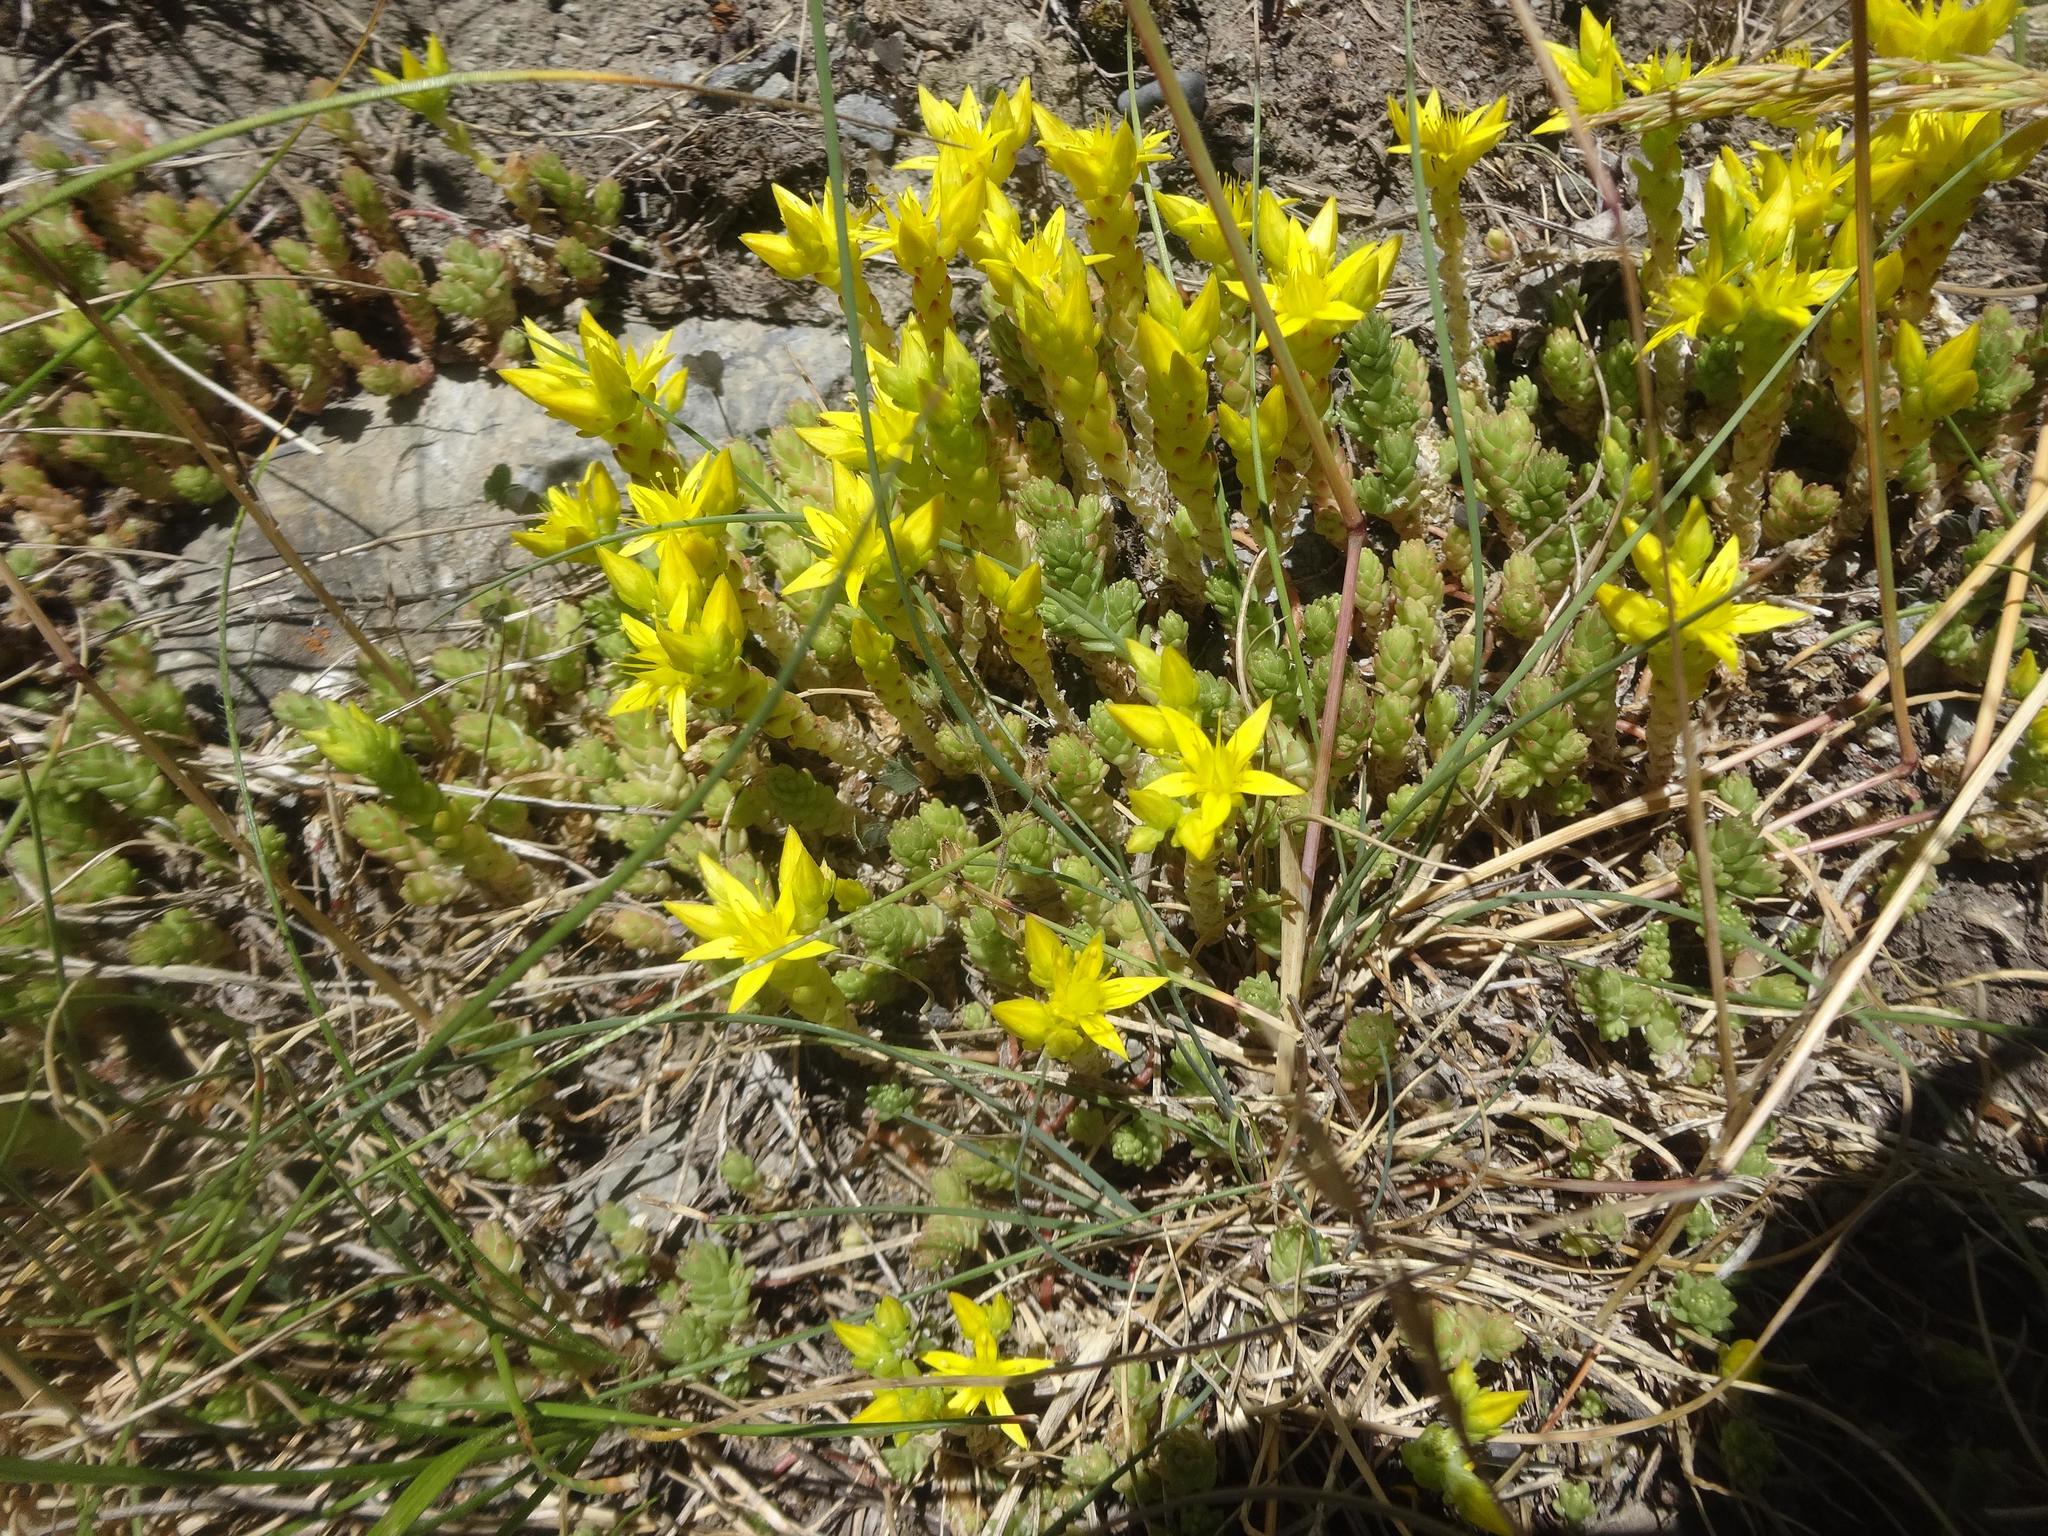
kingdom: Plantae
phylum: Tracheophyta
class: Magnoliopsida
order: Saxifragales
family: Crassulaceae
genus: Sedum
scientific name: Sedum acre
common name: Biting stonecrop
